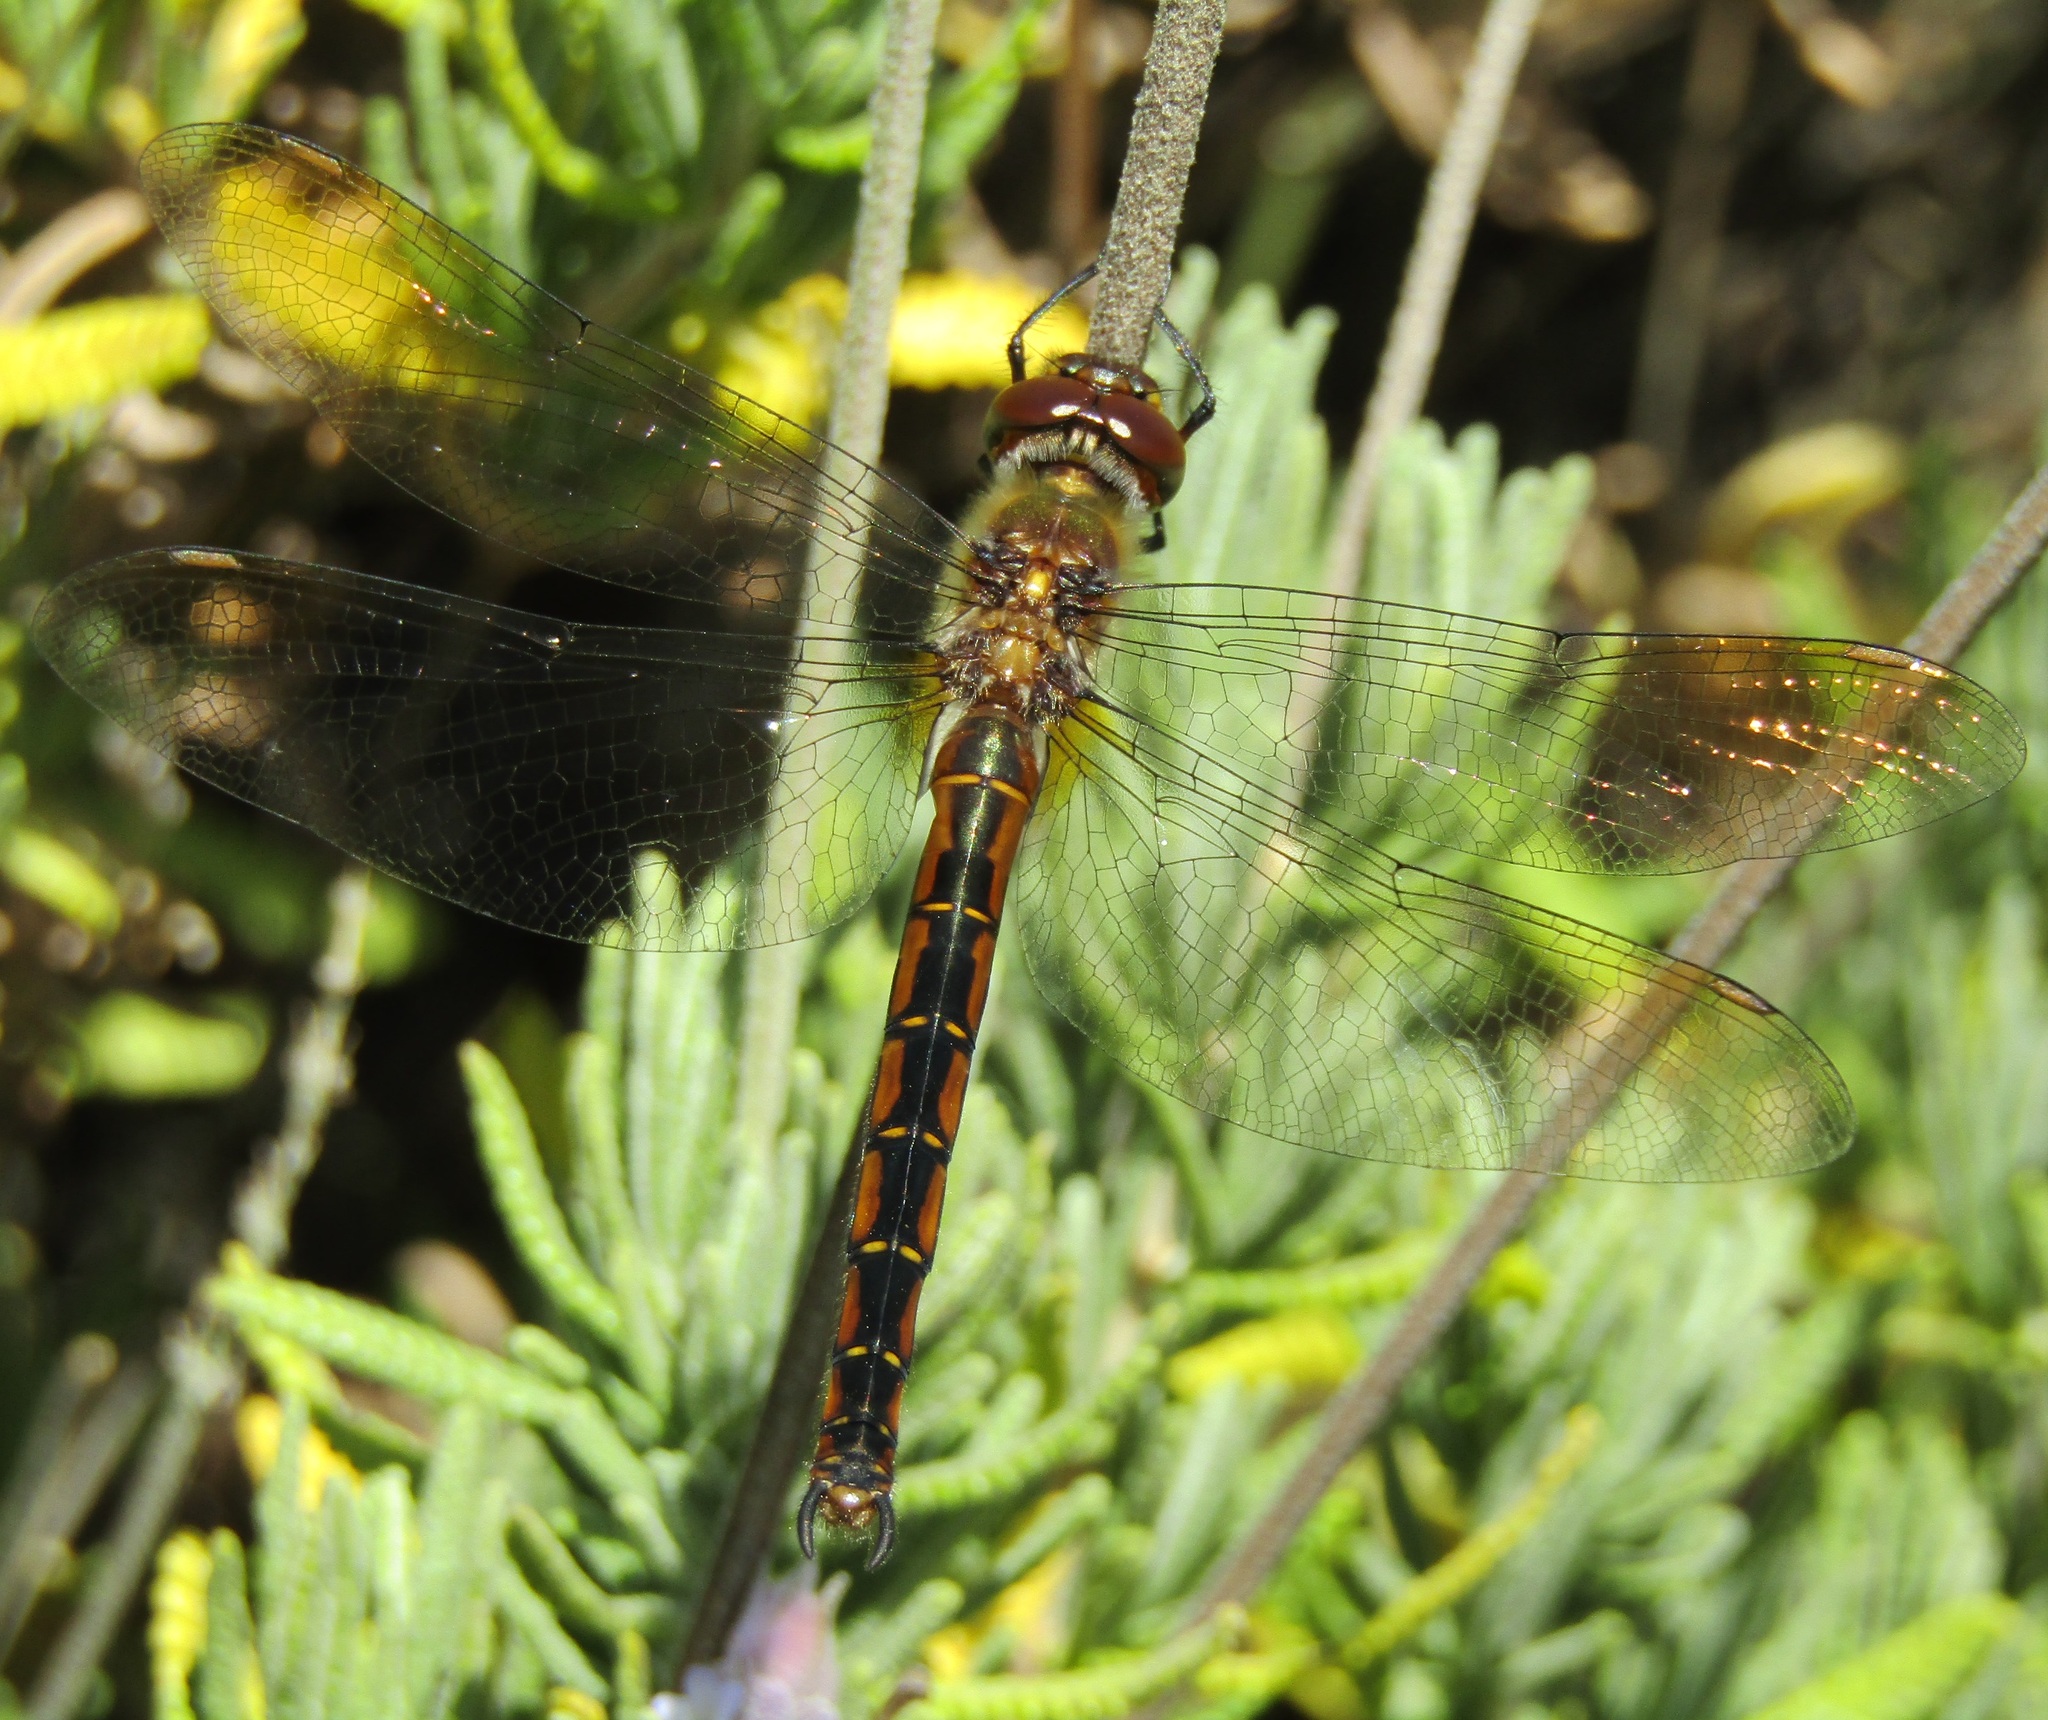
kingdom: Animalia
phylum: Arthropoda
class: Insecta
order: Odonata
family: Corduliidae
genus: Procordulia
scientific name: Procordulia smithii
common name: Ranger dragonfly
